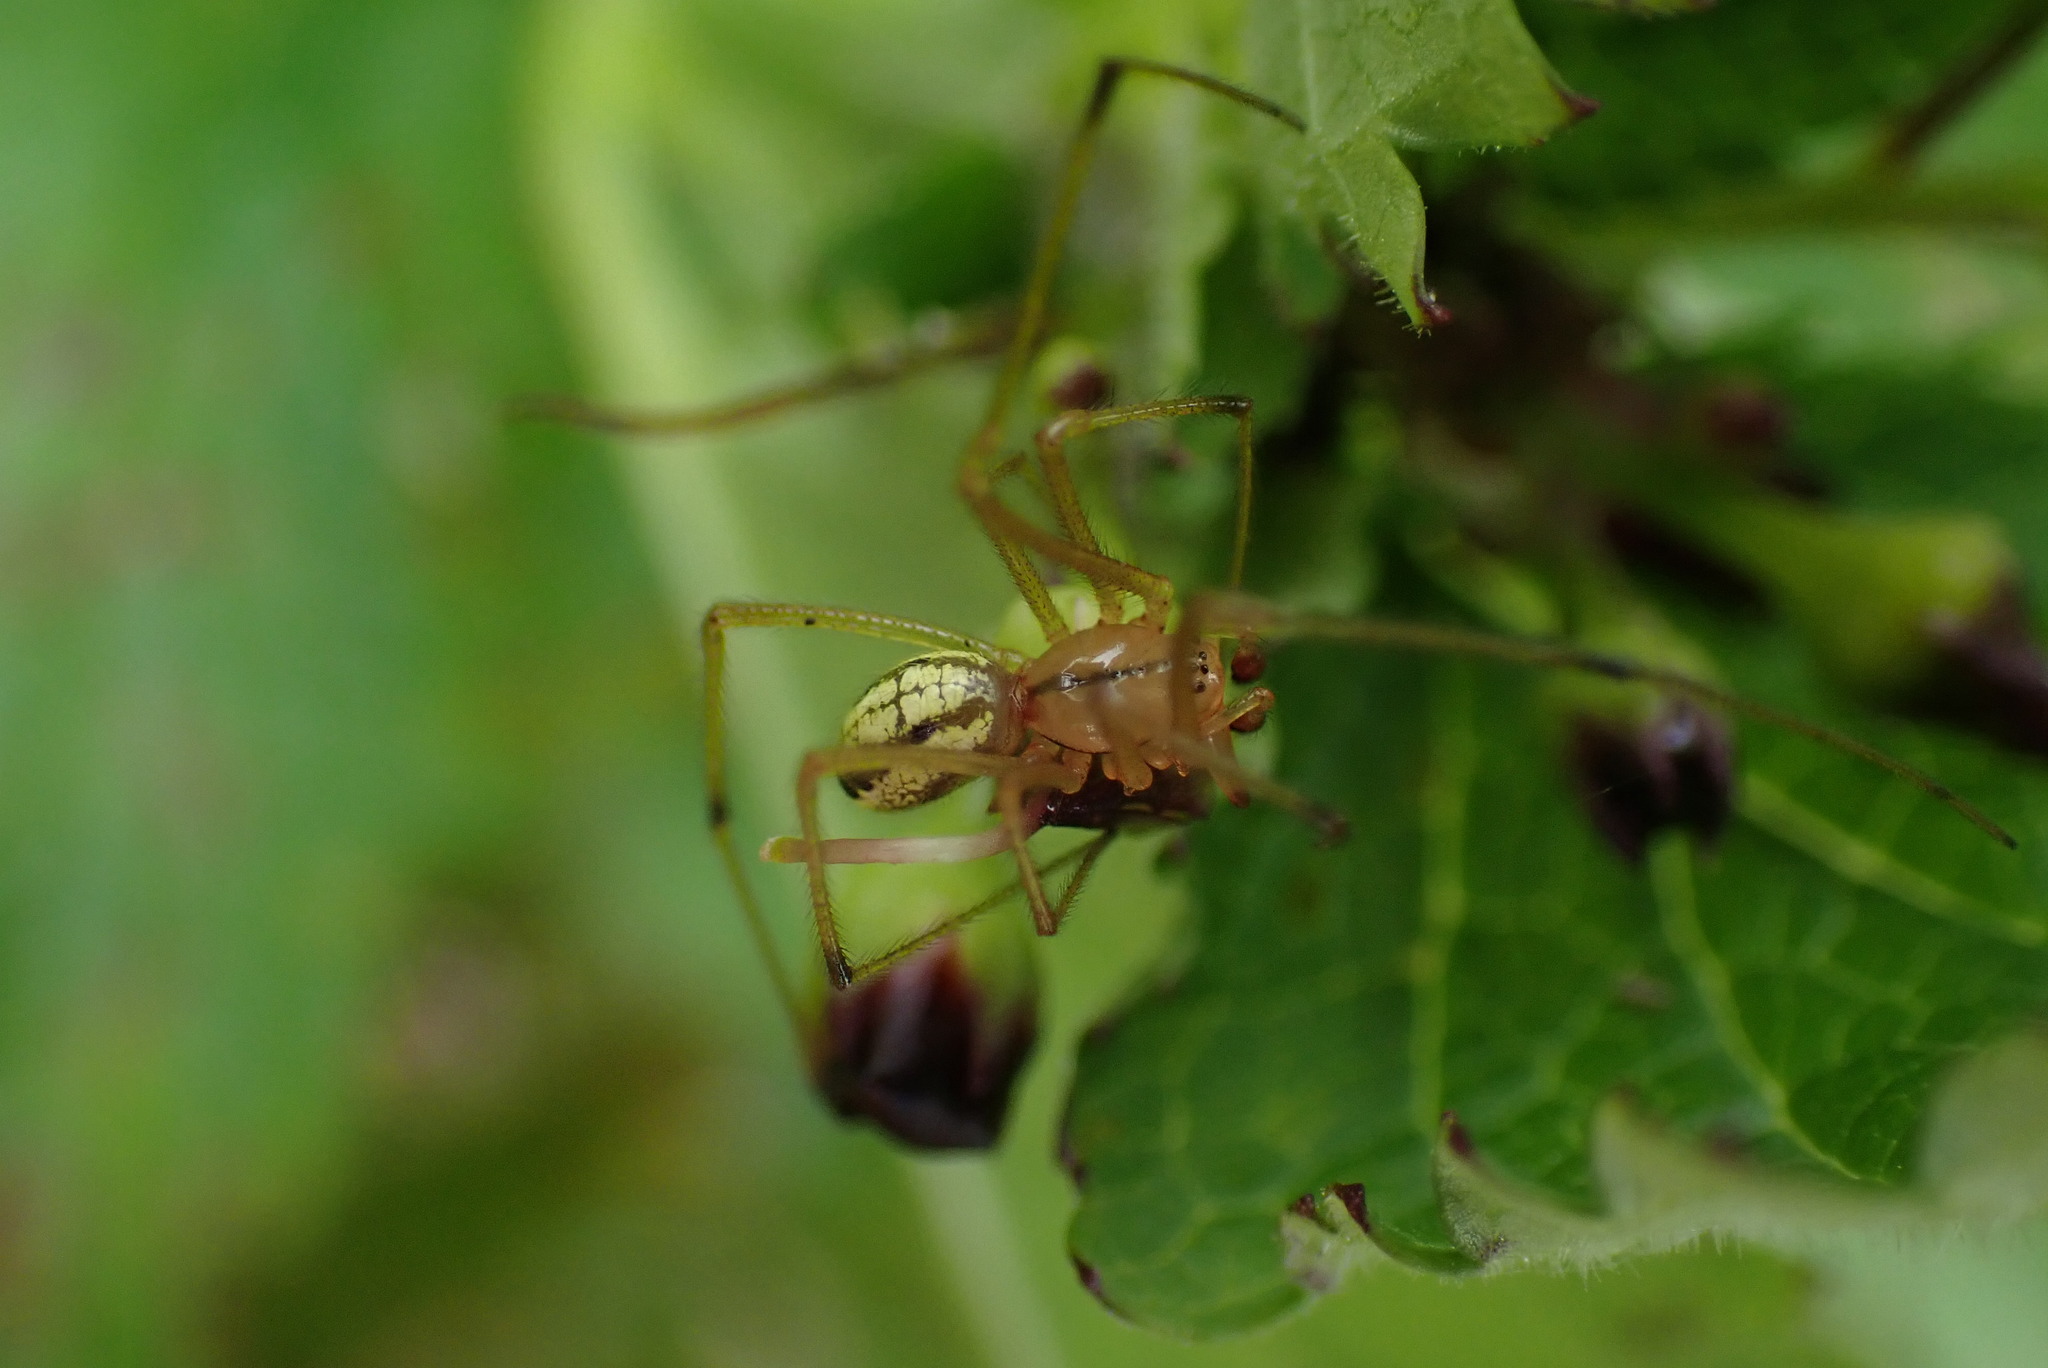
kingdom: Animalia
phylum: Arthropoda
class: Arachnida
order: Araneae
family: Theridiidae
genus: Enoplognatha
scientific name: Enoplognatha ovata
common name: Common candy-striped spider
